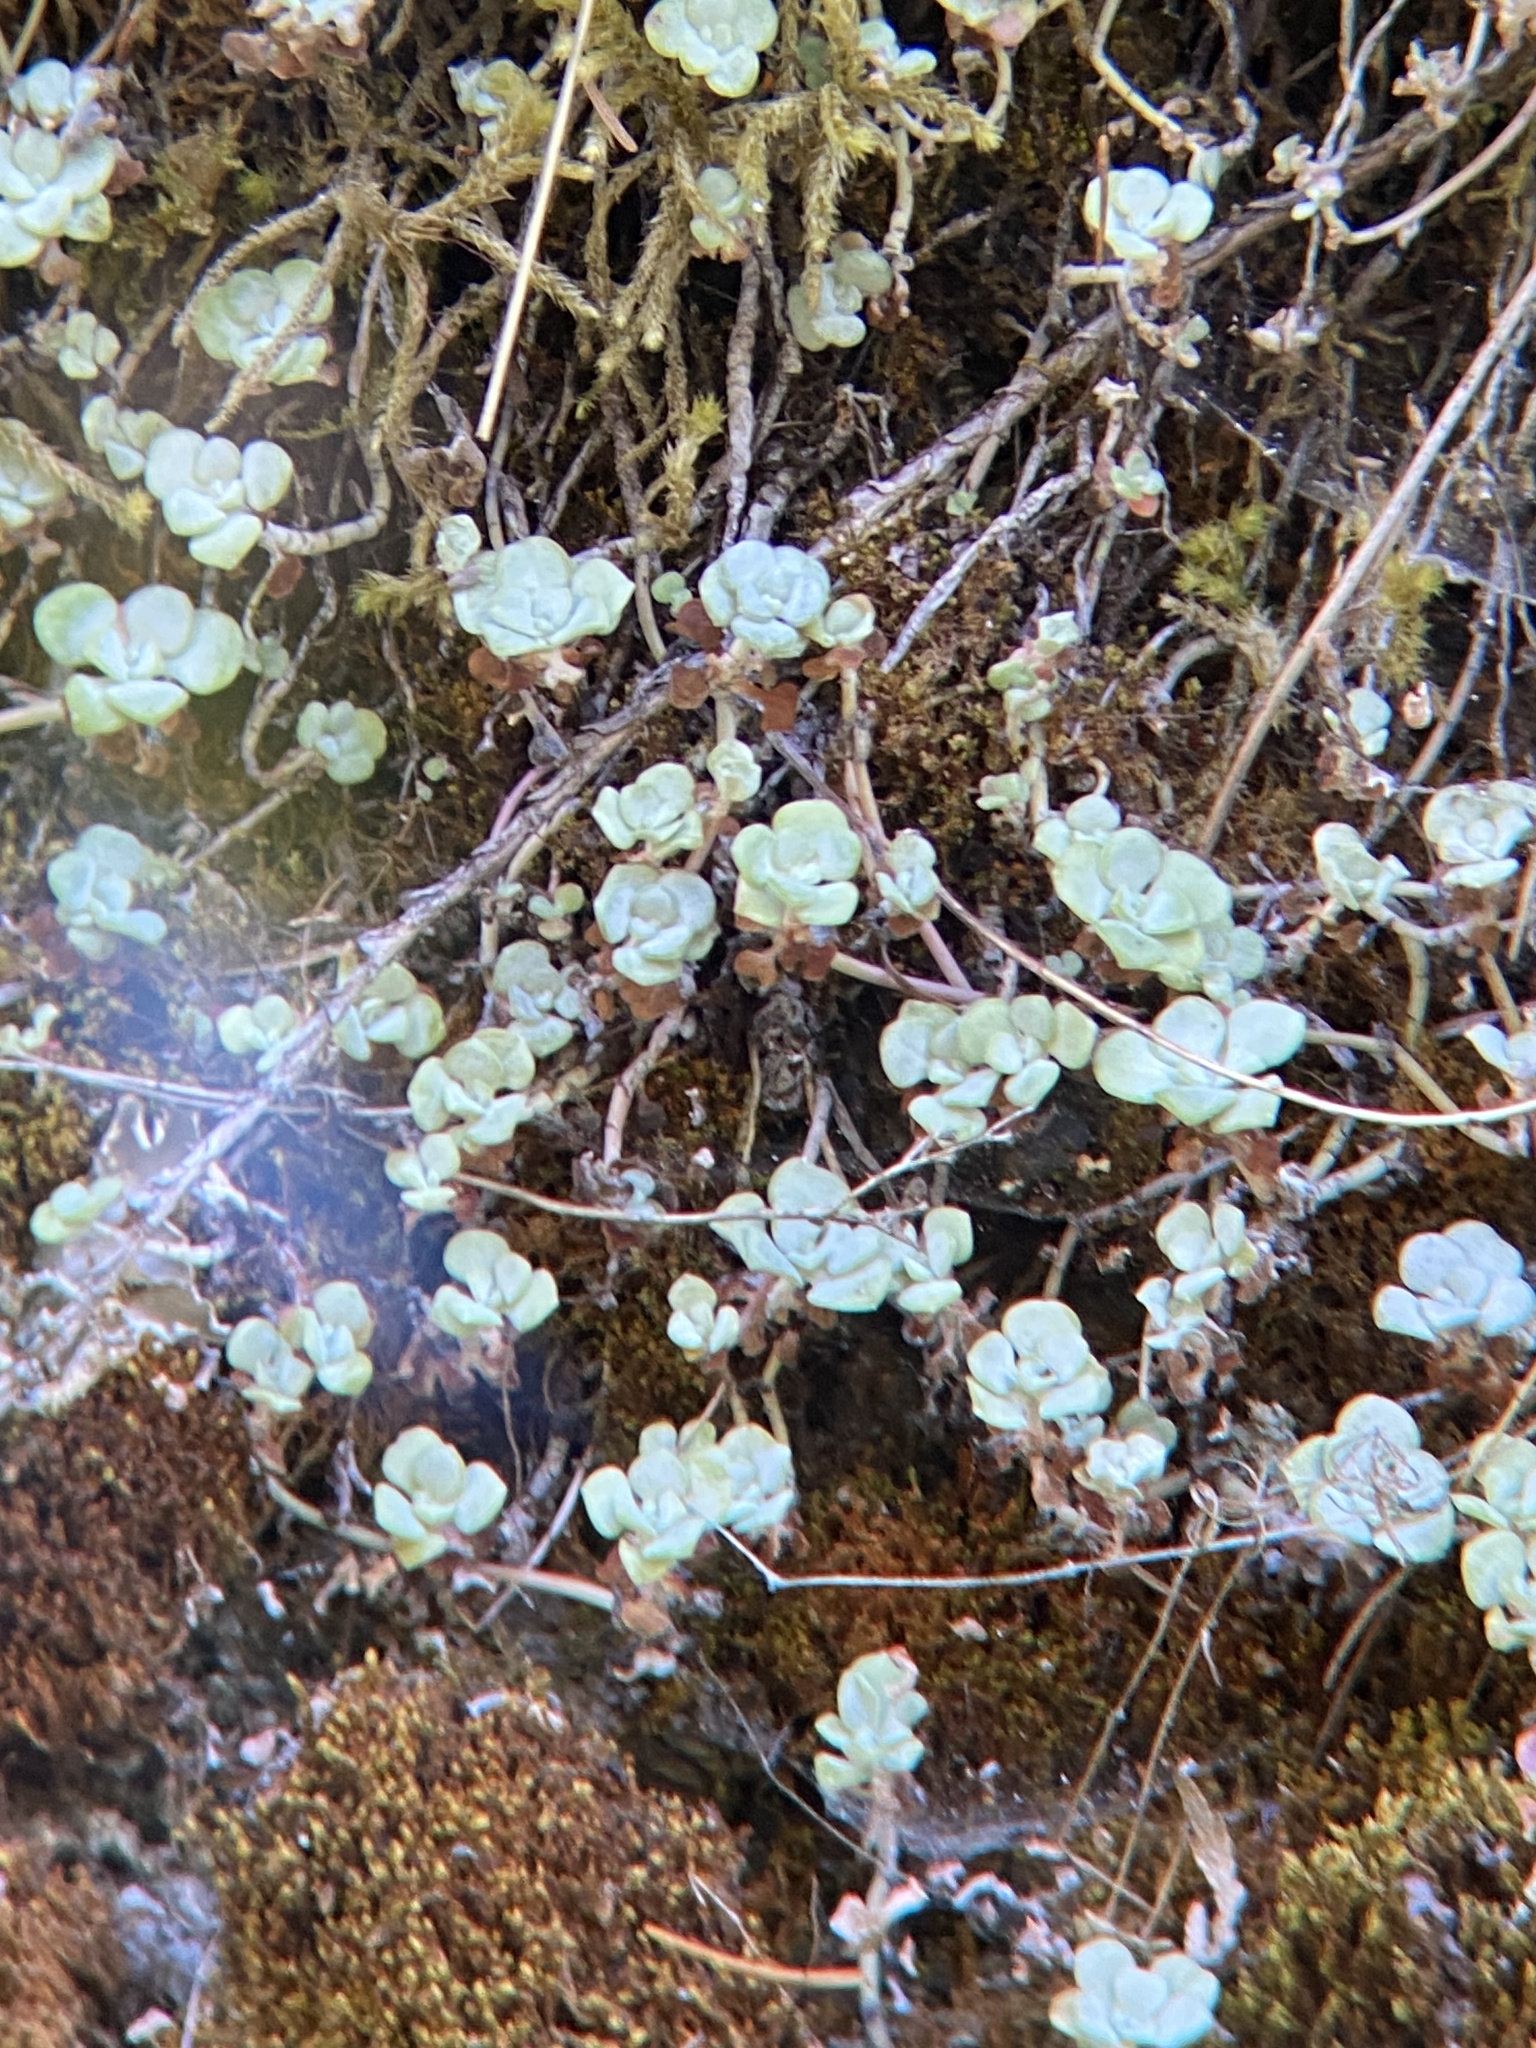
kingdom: Plantae
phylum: Tracheophyta
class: Magnoliopsida
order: Saxifragales
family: Crassulaceae
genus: Sedum
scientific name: Sedum spathulifolium
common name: Colorado stonecrop
